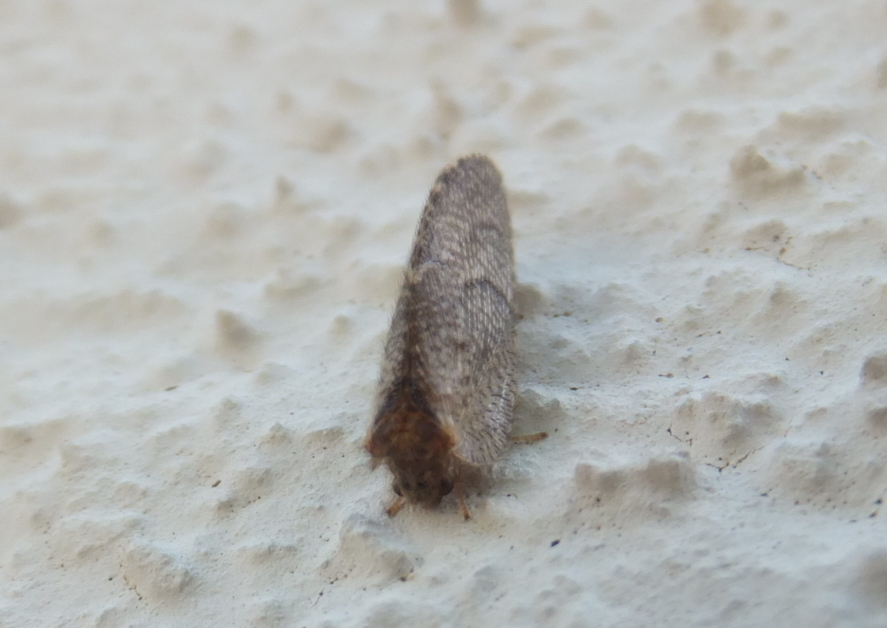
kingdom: Animalia
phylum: Arthropoda
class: Insecta
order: Neuroptera
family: Hemerobiidae
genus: Megalomus
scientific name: Megalomus pyraloides
